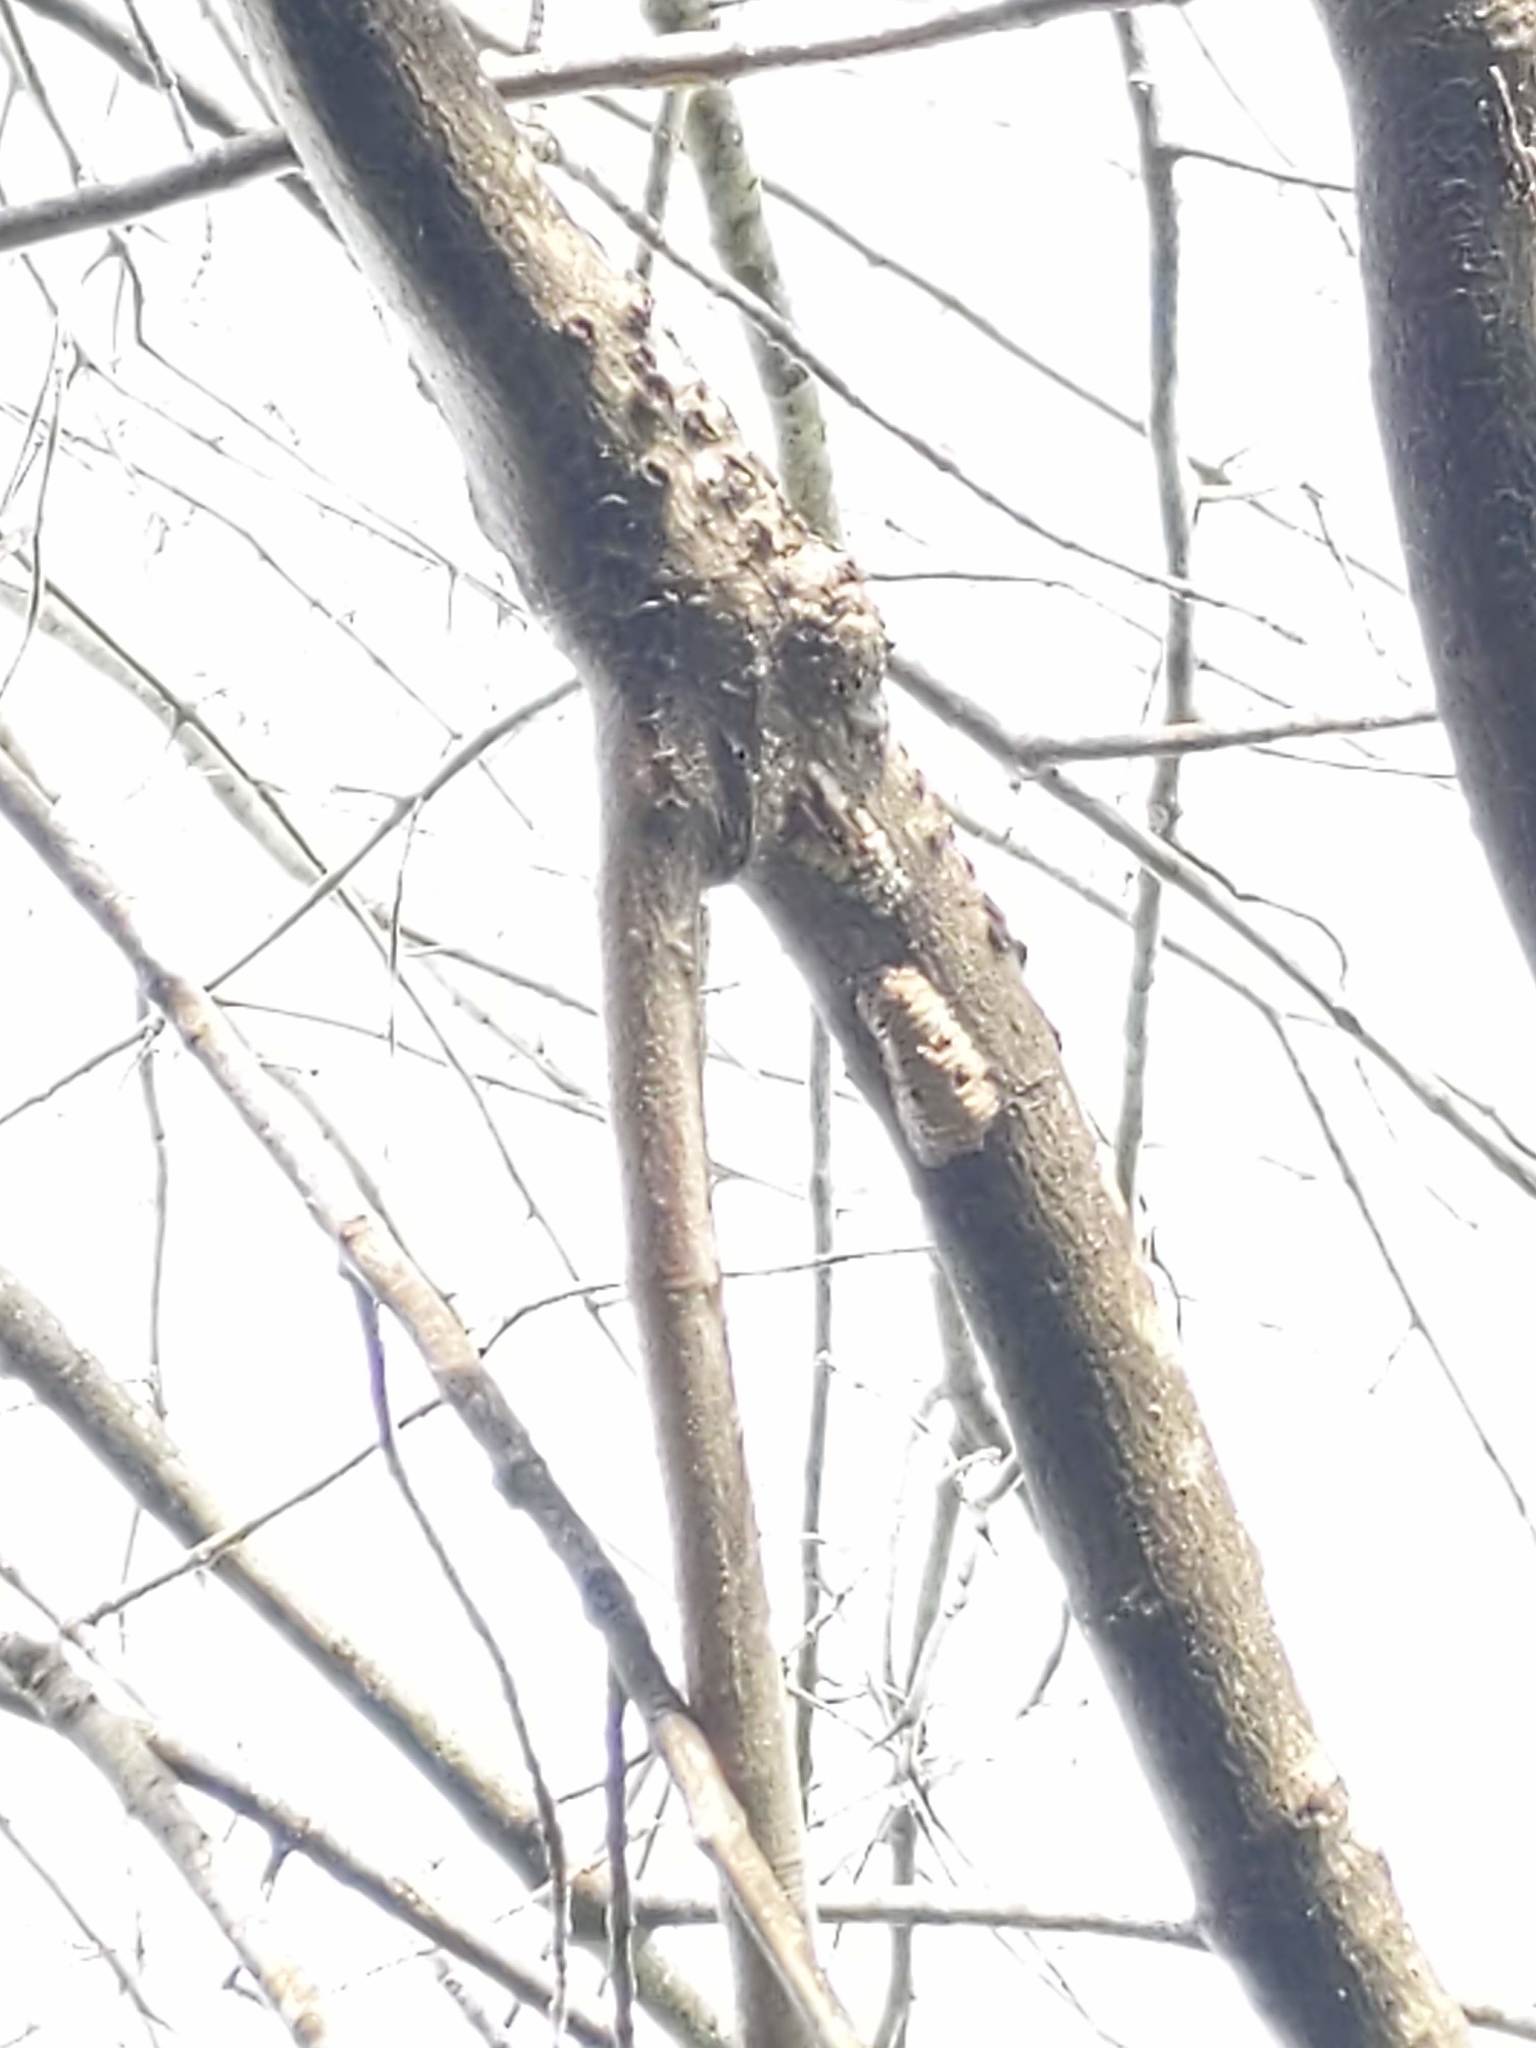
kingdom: Animalia
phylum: Arthropoda
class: Insecta
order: Hemiptera
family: Fulgoridae
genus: Lycorma
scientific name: Lycorma delicatula
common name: Spotted lanternfly
